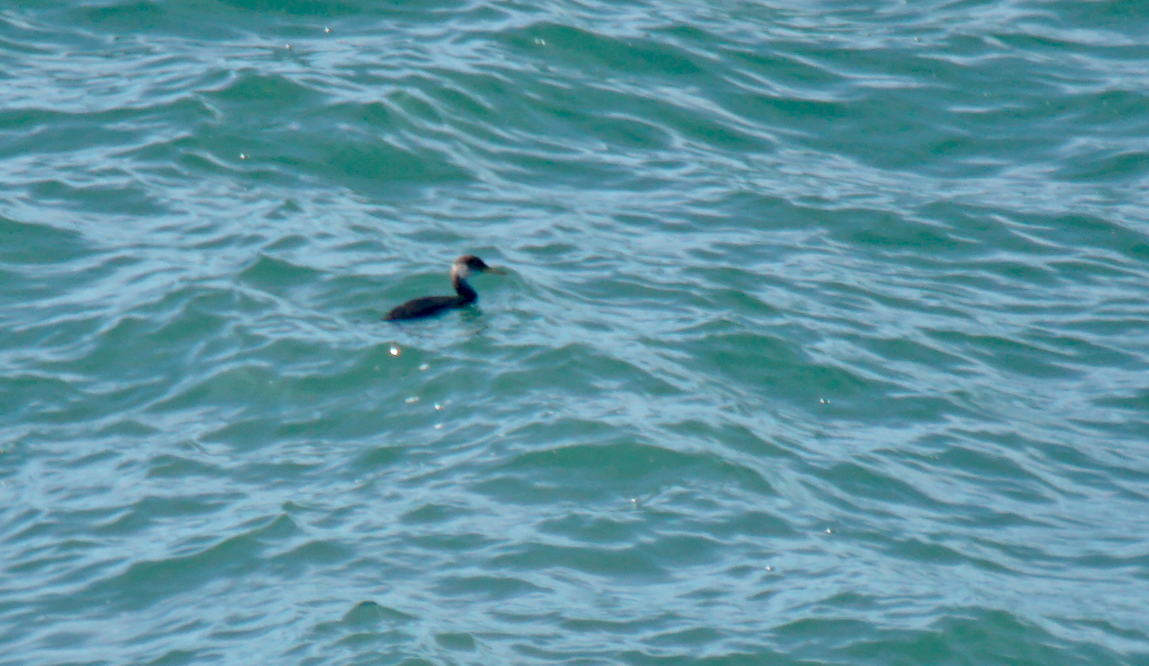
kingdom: Animalia
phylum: Chordata
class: Aves
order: Podicipediformes
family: Podicipedidae
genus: Podiceps
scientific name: Podiceps grisegena
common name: Red-necked grebe
